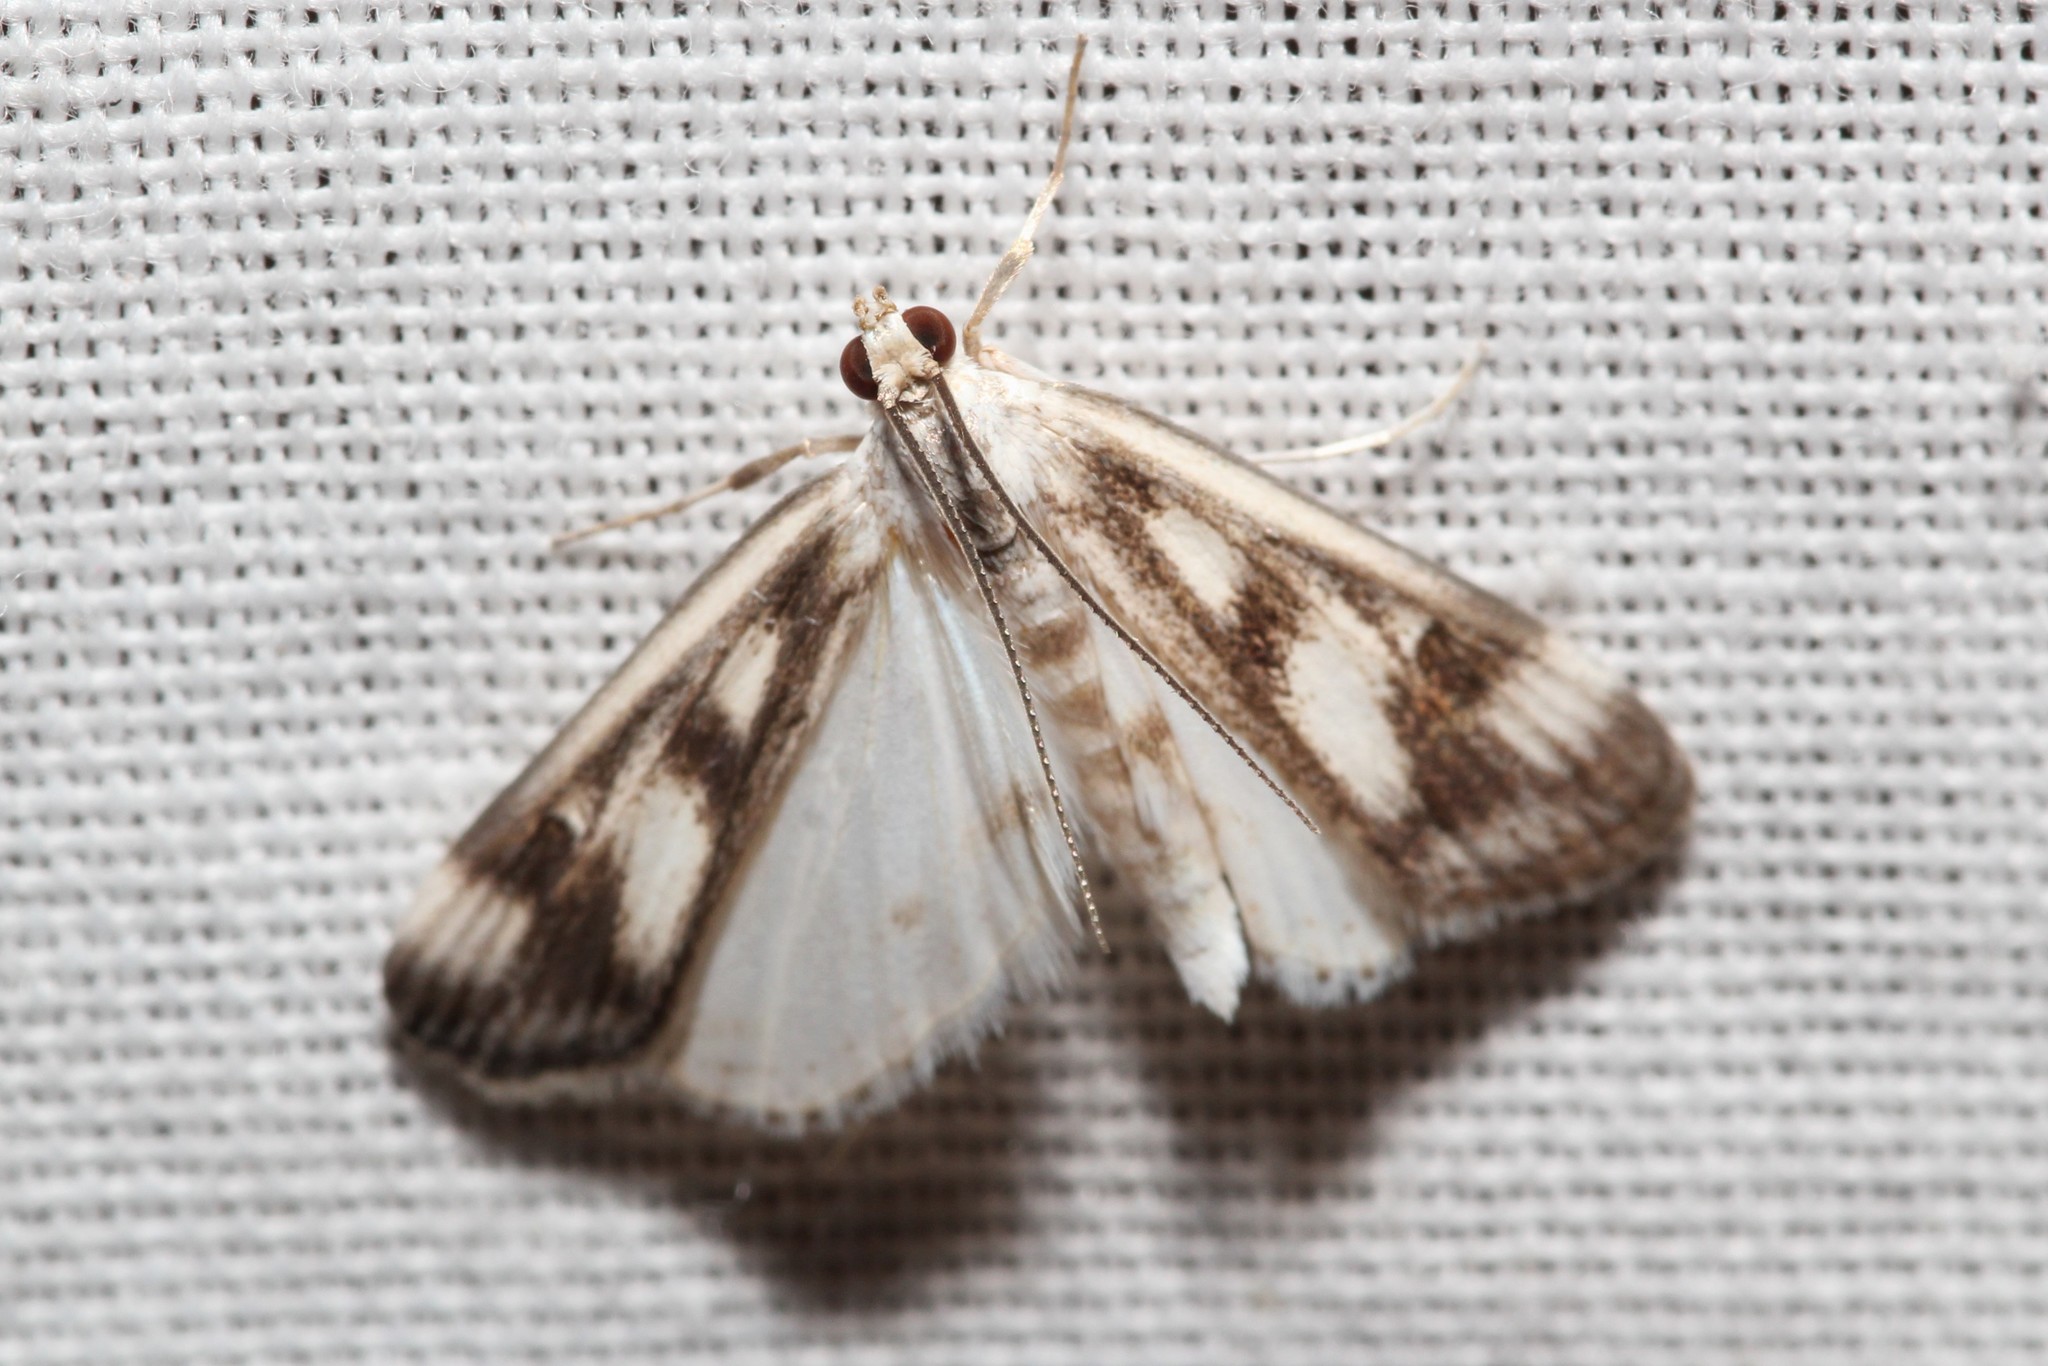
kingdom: Animalia
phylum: Arthropoda
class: Insecta
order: Lepidoptera
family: Crambidae
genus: Parapoynx
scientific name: Parapoynx maculalis
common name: Polymorphic pondweed moth
